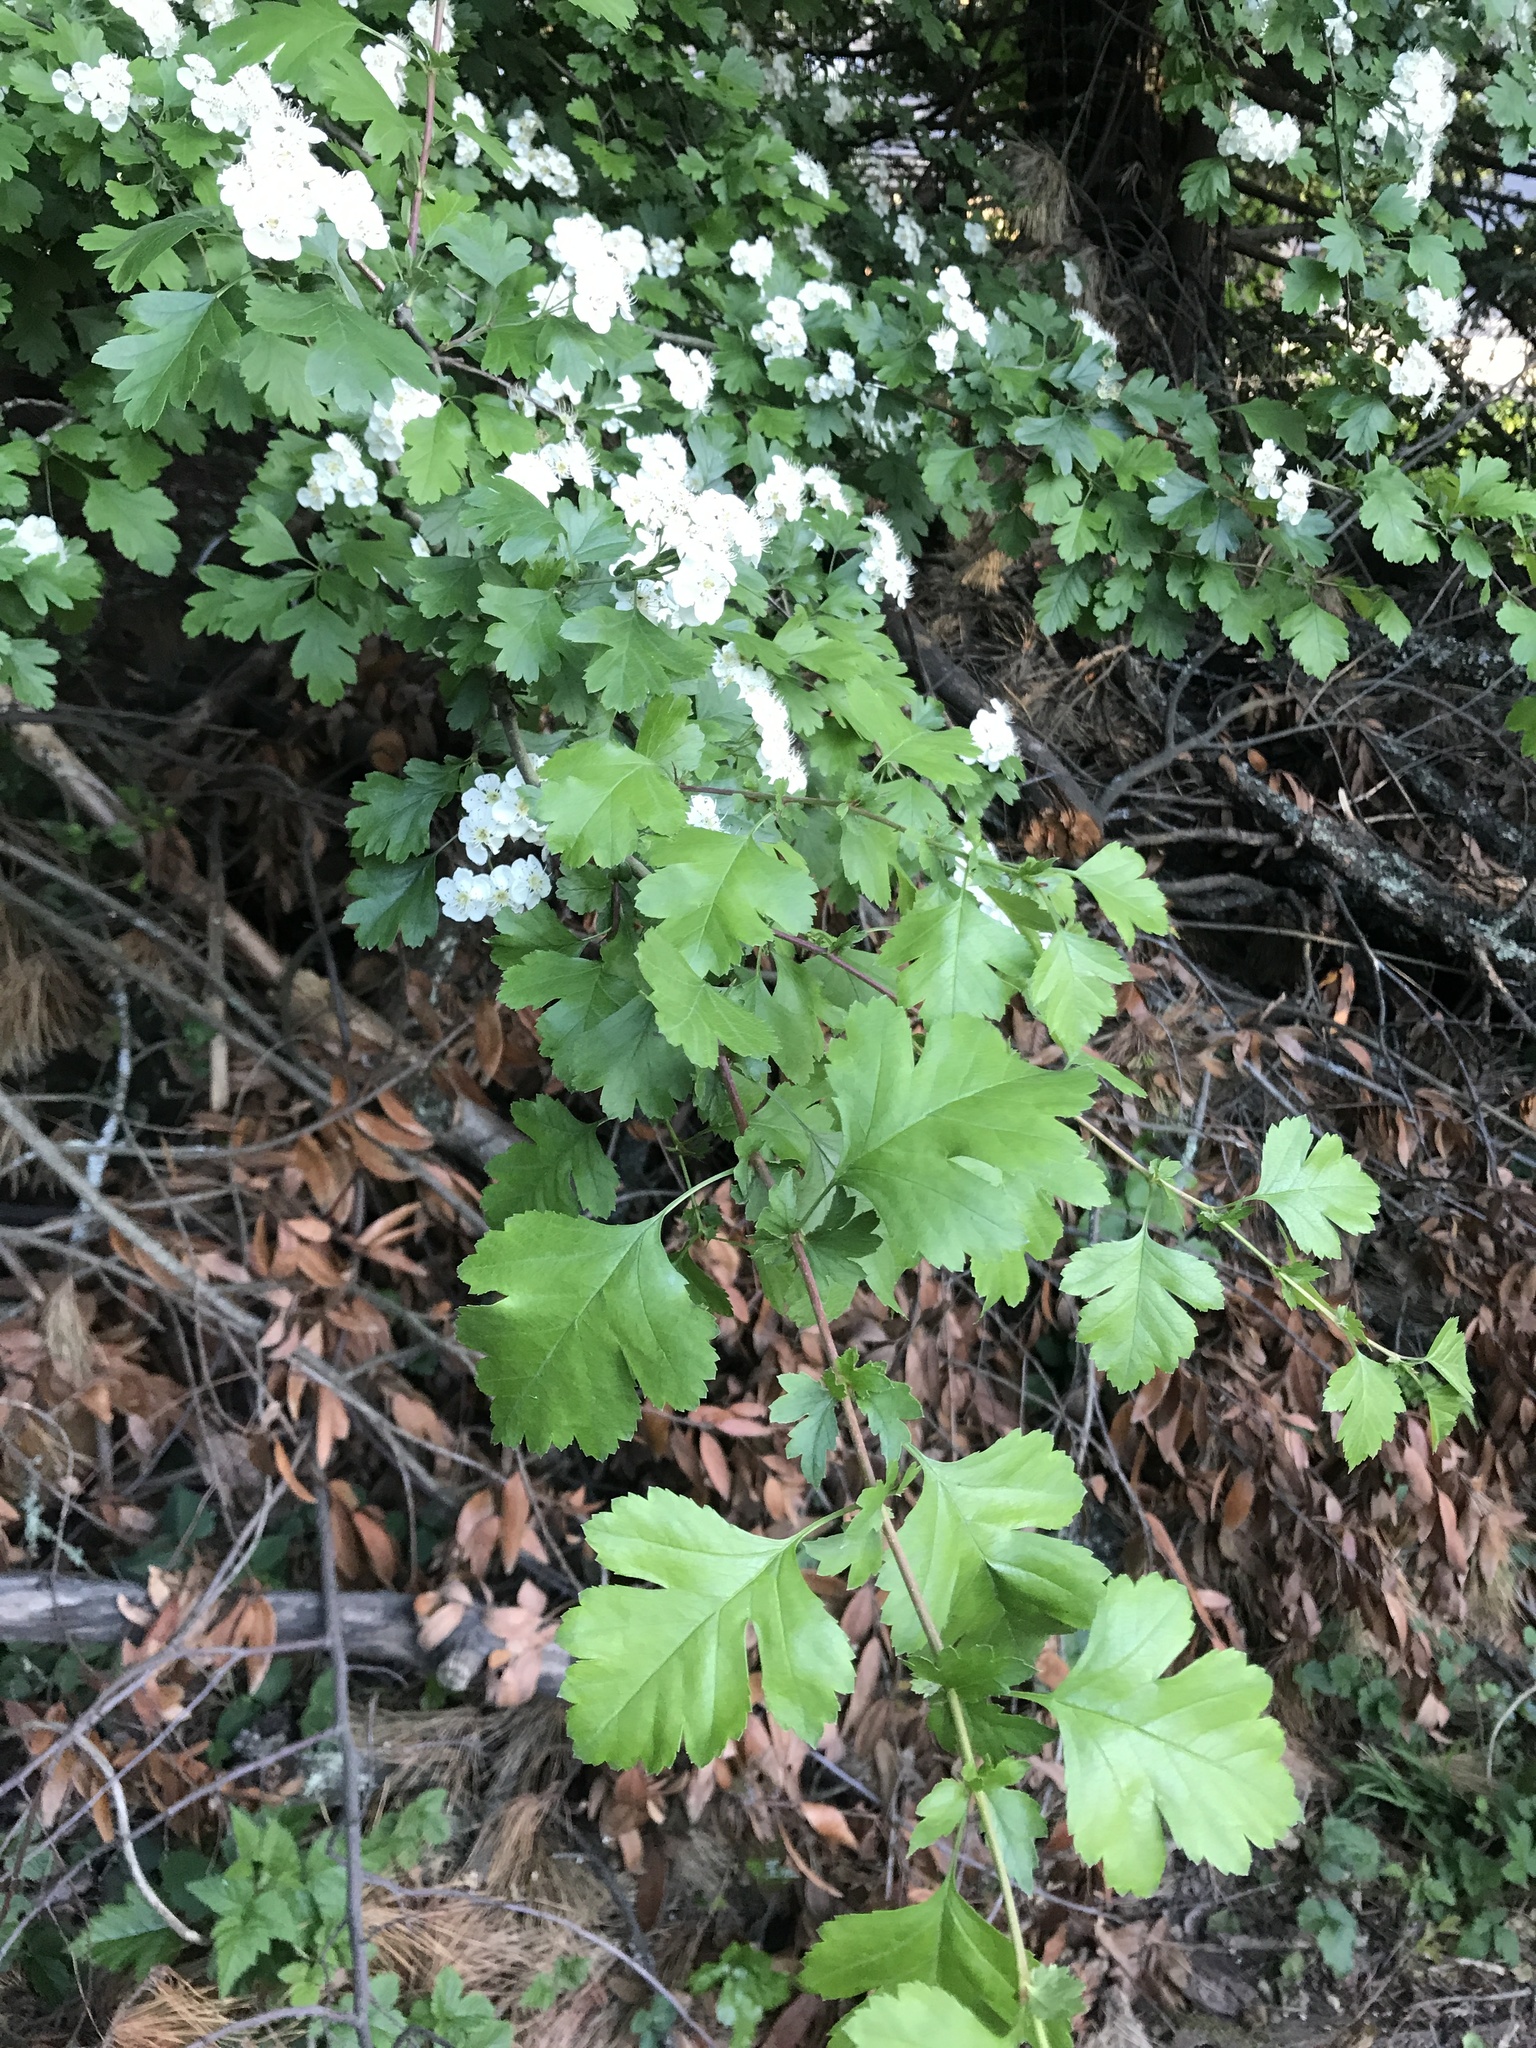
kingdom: Plantae
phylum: Tracheophyta
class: Magnoliopsida
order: Rosales
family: Rosaceae
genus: Crataegus
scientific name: Crataegus monogyna
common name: Hawthorn
